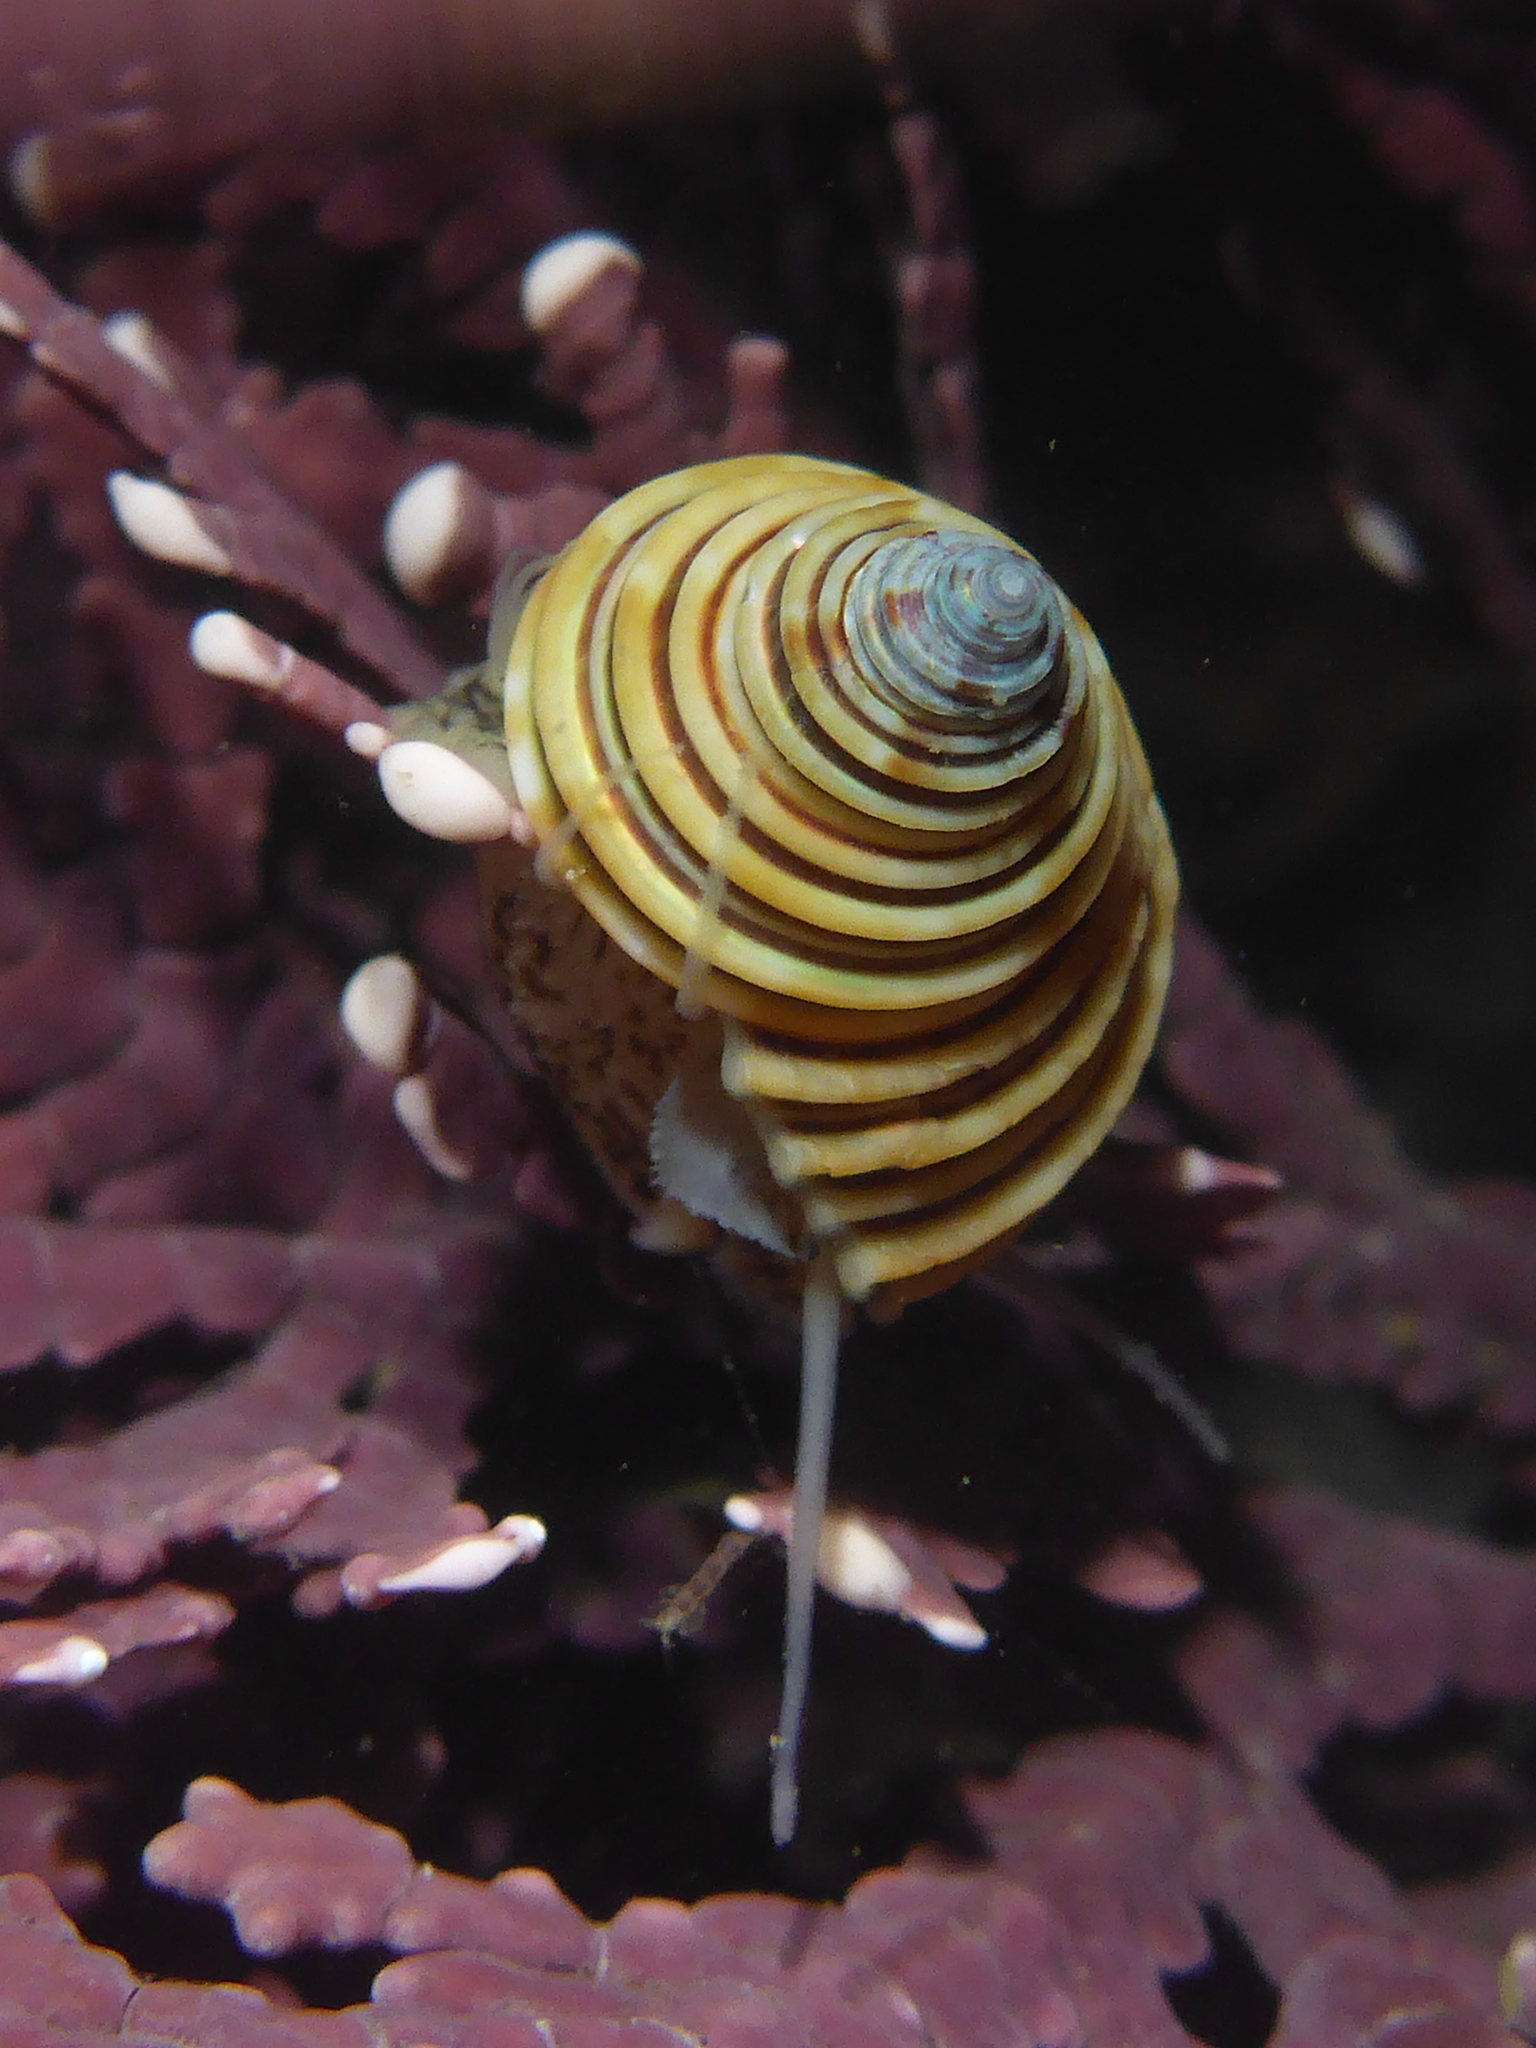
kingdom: Animalia
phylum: Mollusca
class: Gastropoda
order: Trochida
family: Calliostomatidae
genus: Calliostoma
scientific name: Calliostoma canaliculatum
